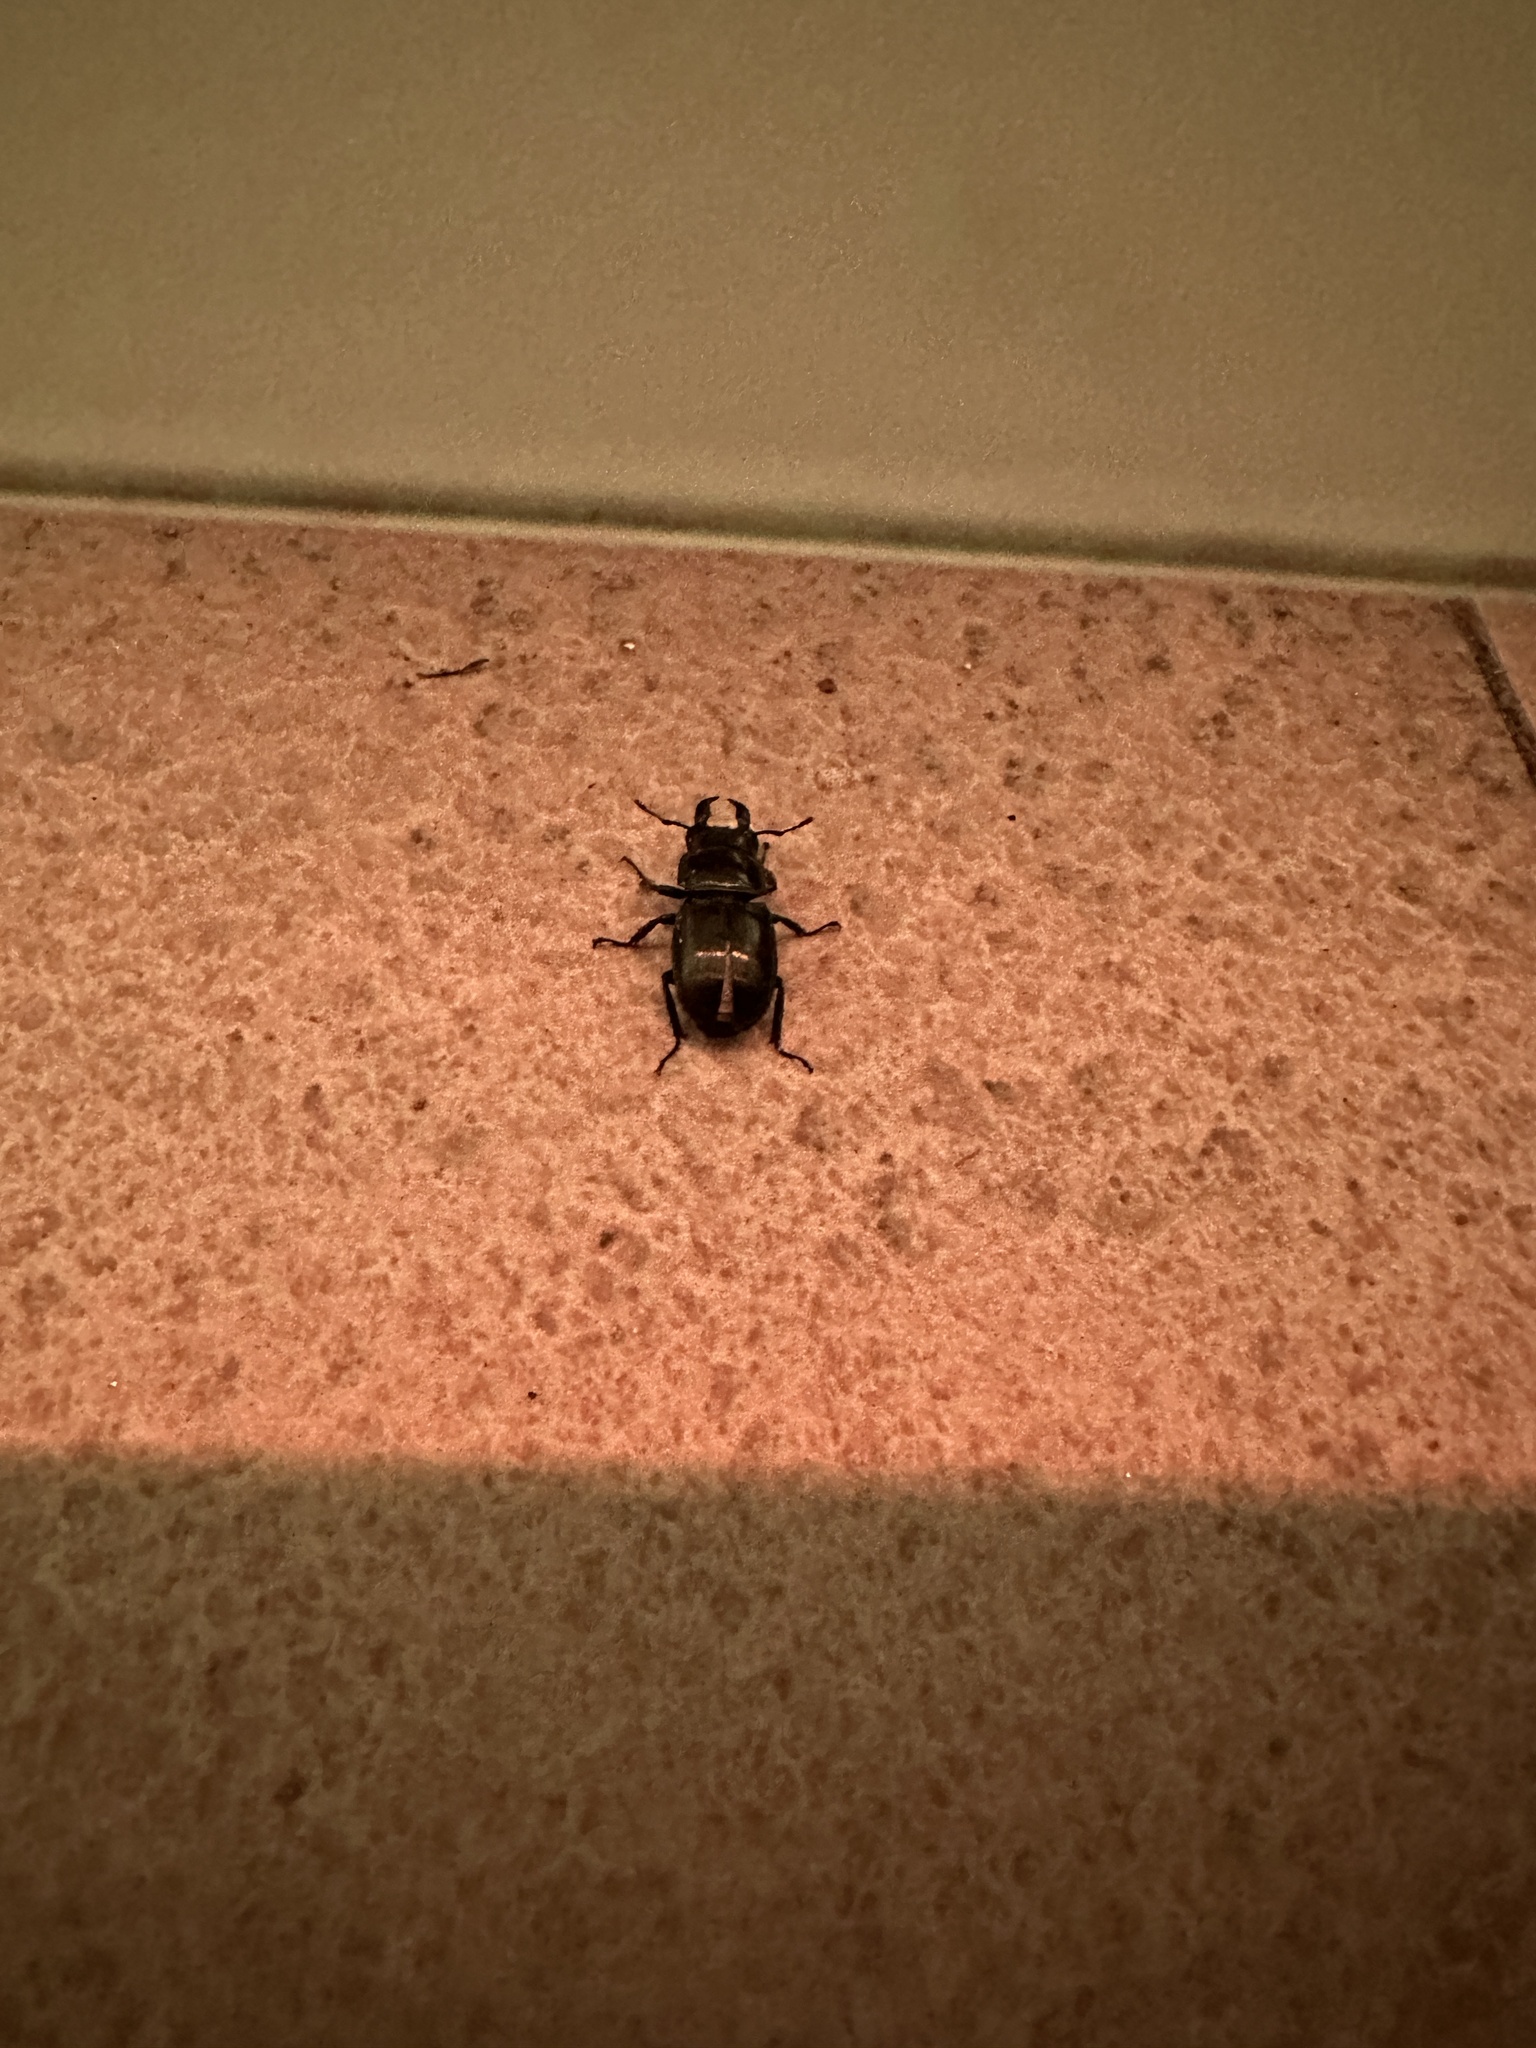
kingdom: Animalia
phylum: Arthropoda
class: Insecta
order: Coleoptera
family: Lucanidae
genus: Serrognathus
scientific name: Serrognathus titanus
